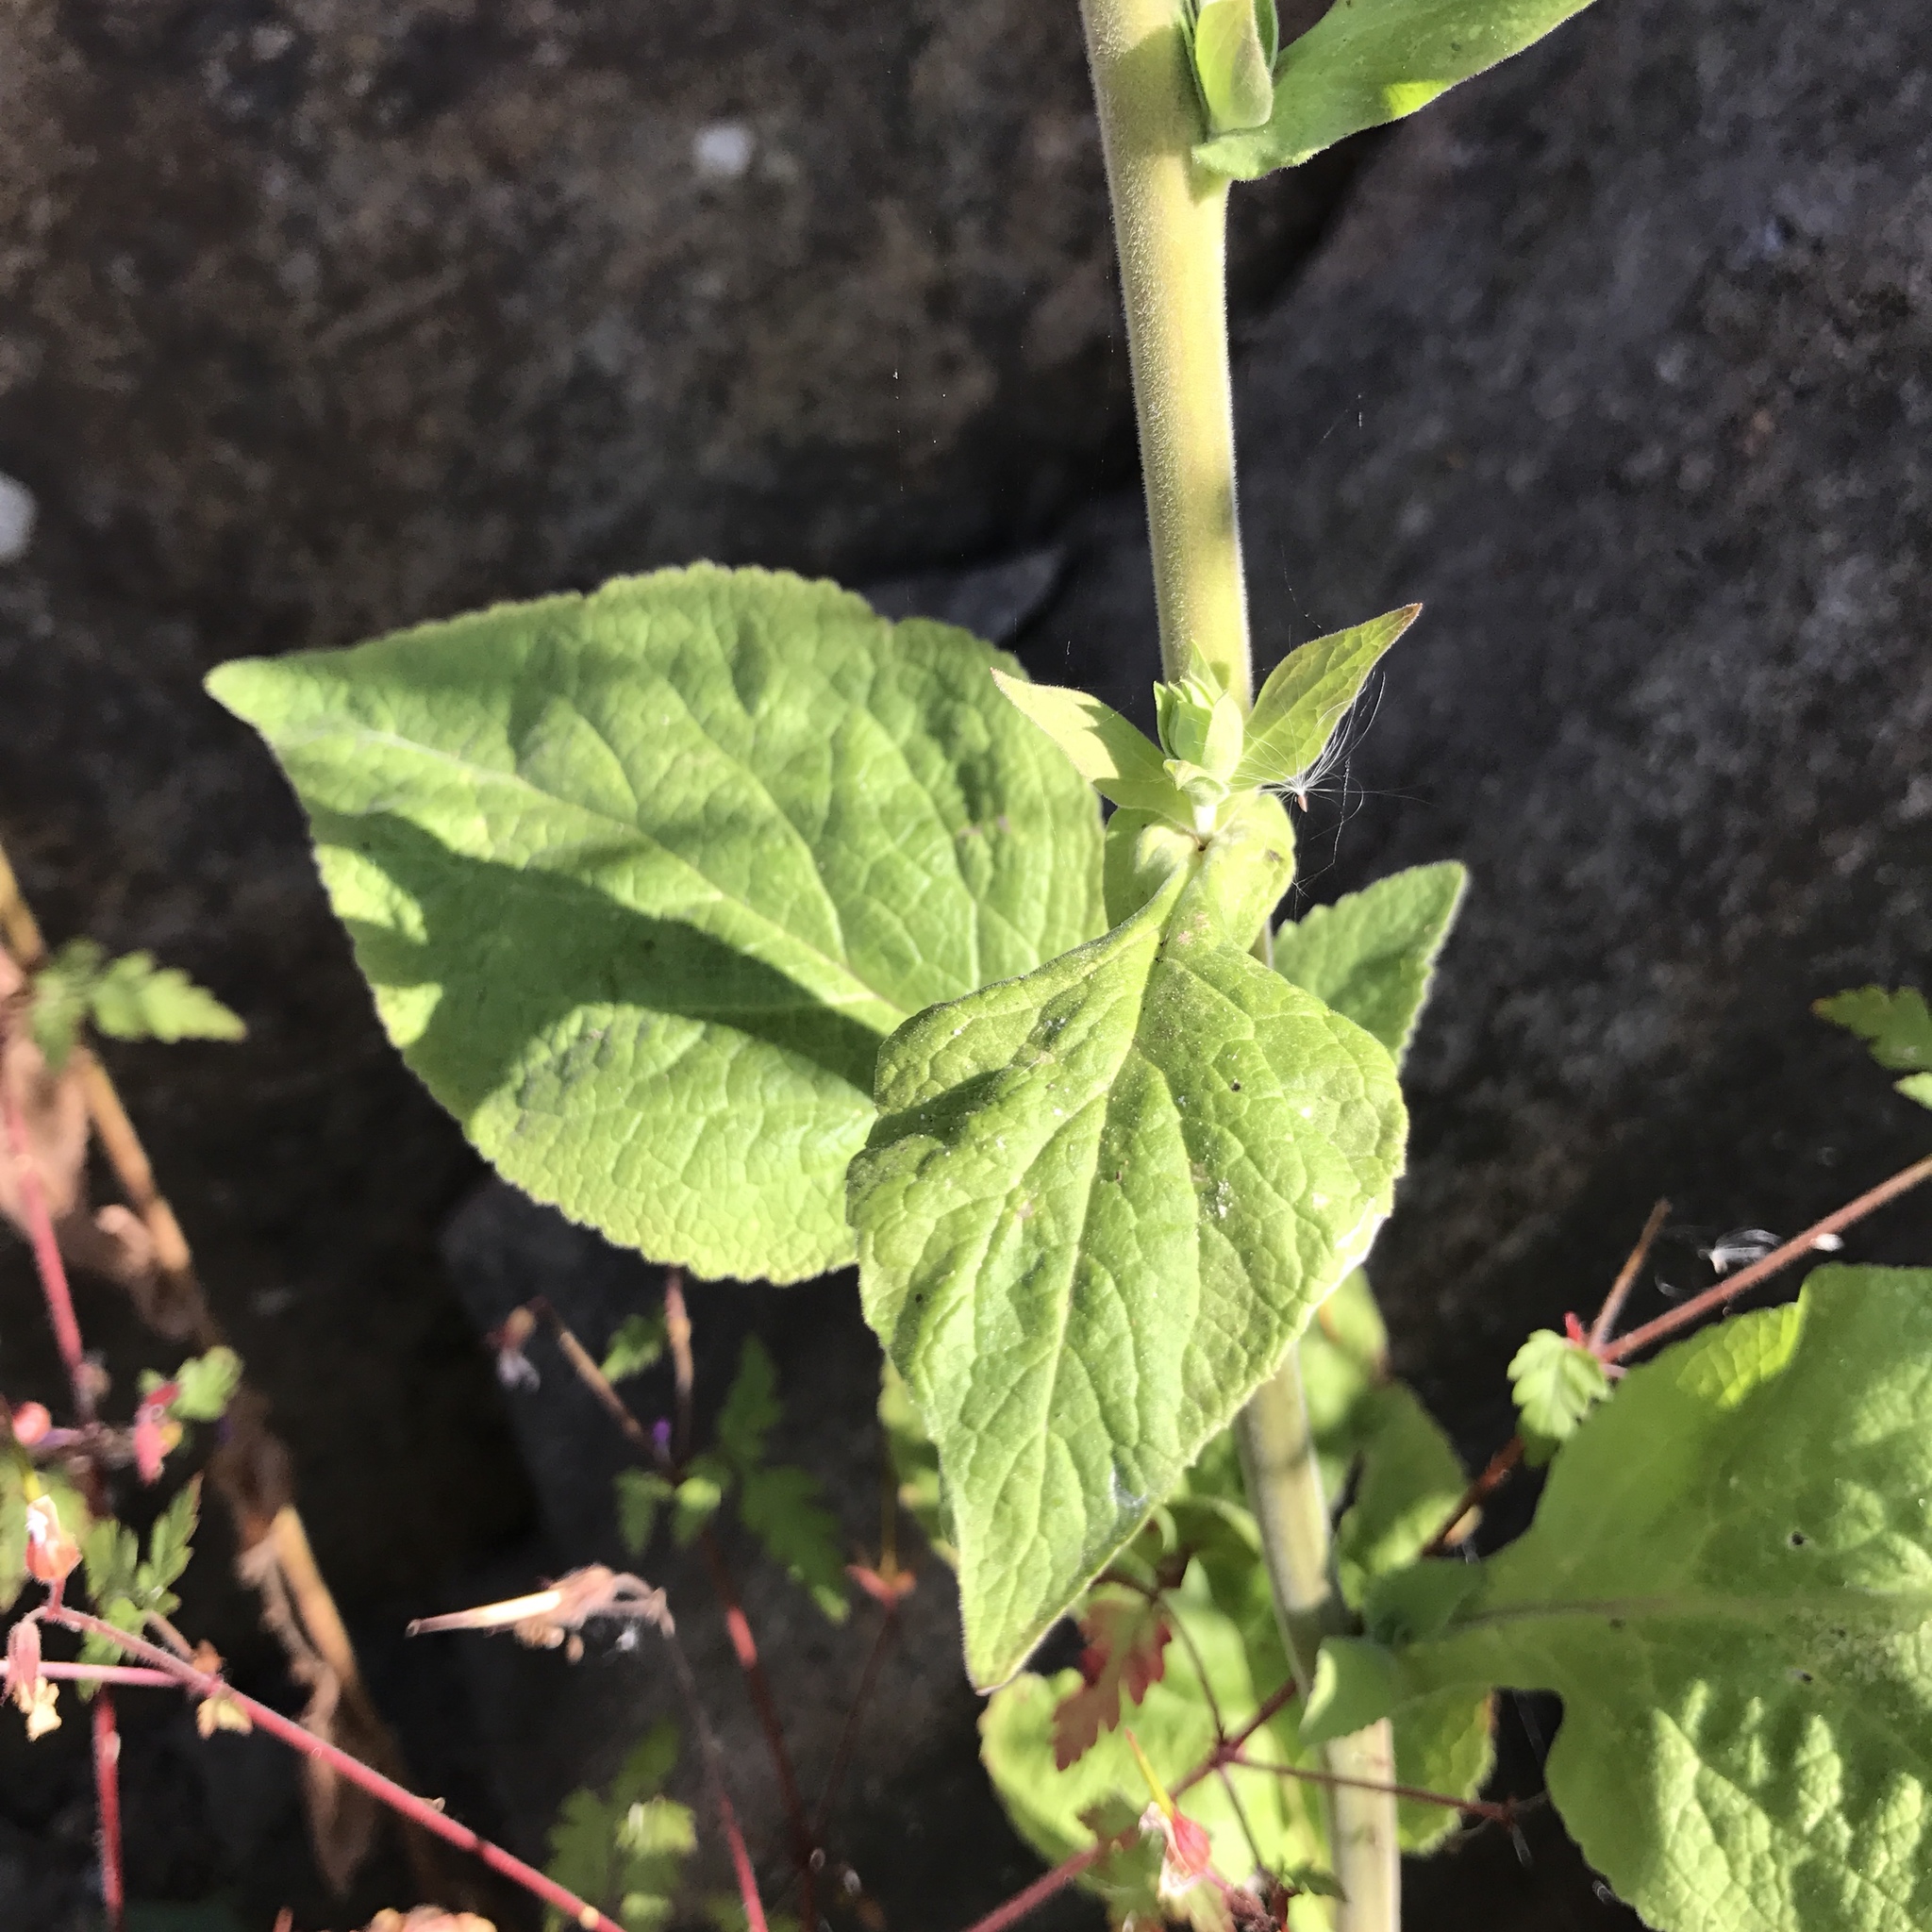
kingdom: Plantae
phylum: Tracheophyta
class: Magnoliopsida
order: Lamiales
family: Plantaginaceae
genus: Digitalis
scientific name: Digitalis purpurea
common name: Foxglove
